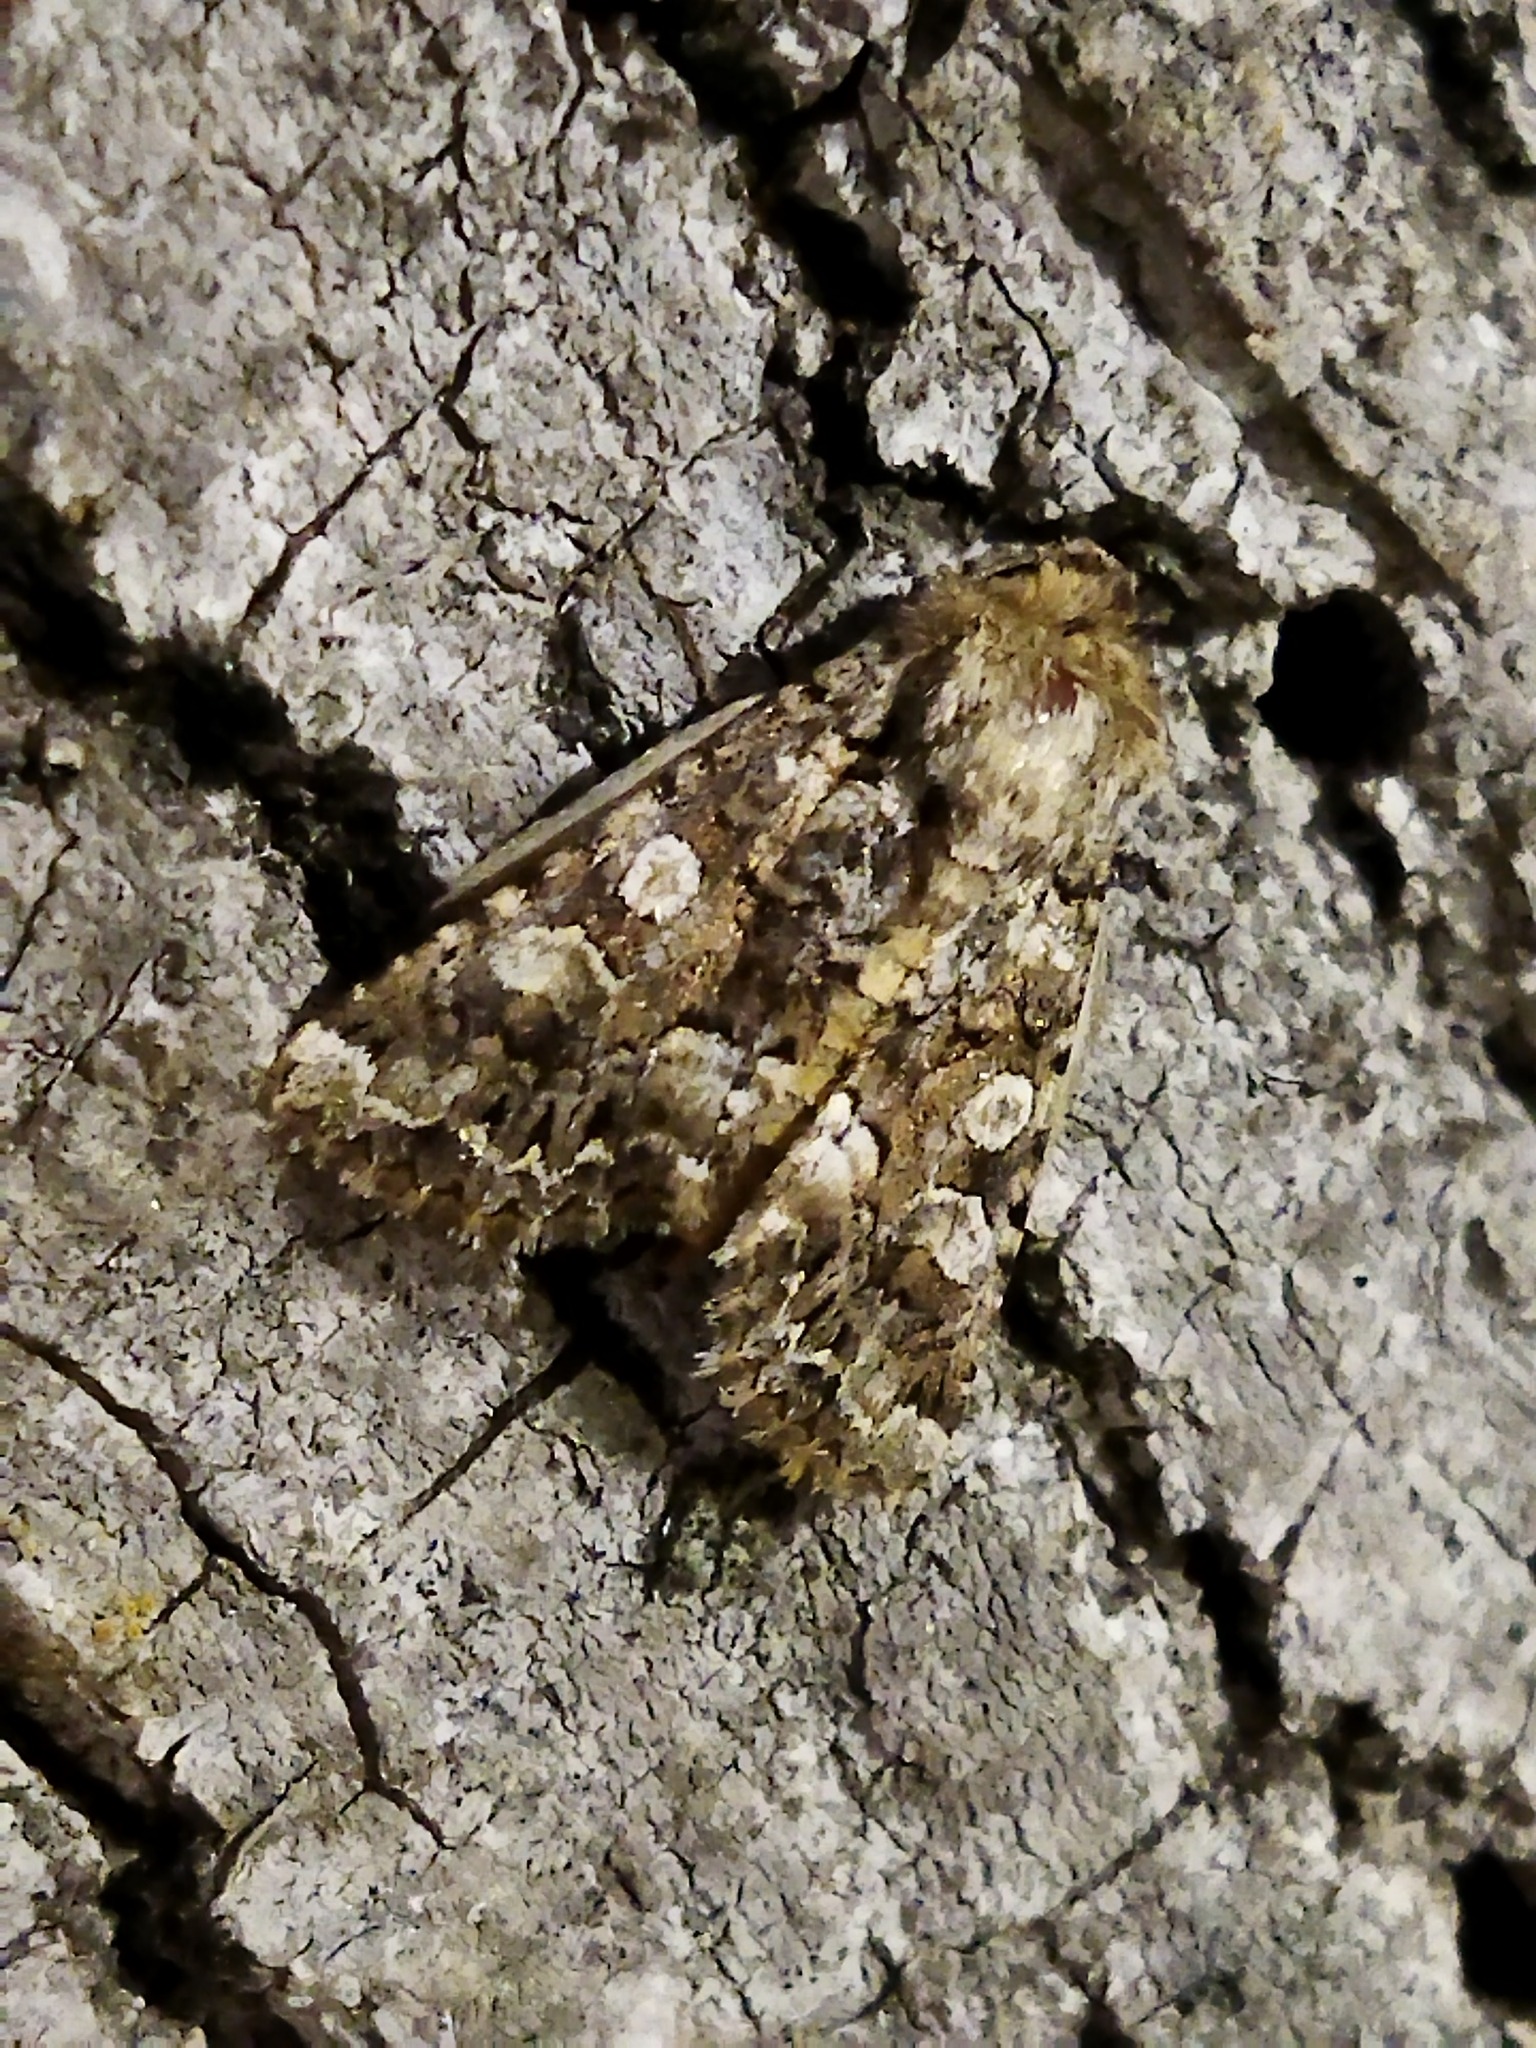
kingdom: Animalia
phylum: Arthropoda
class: Insecta
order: Lepidoptera
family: Noctuidae
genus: Hadena
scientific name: Hadena syriaca
